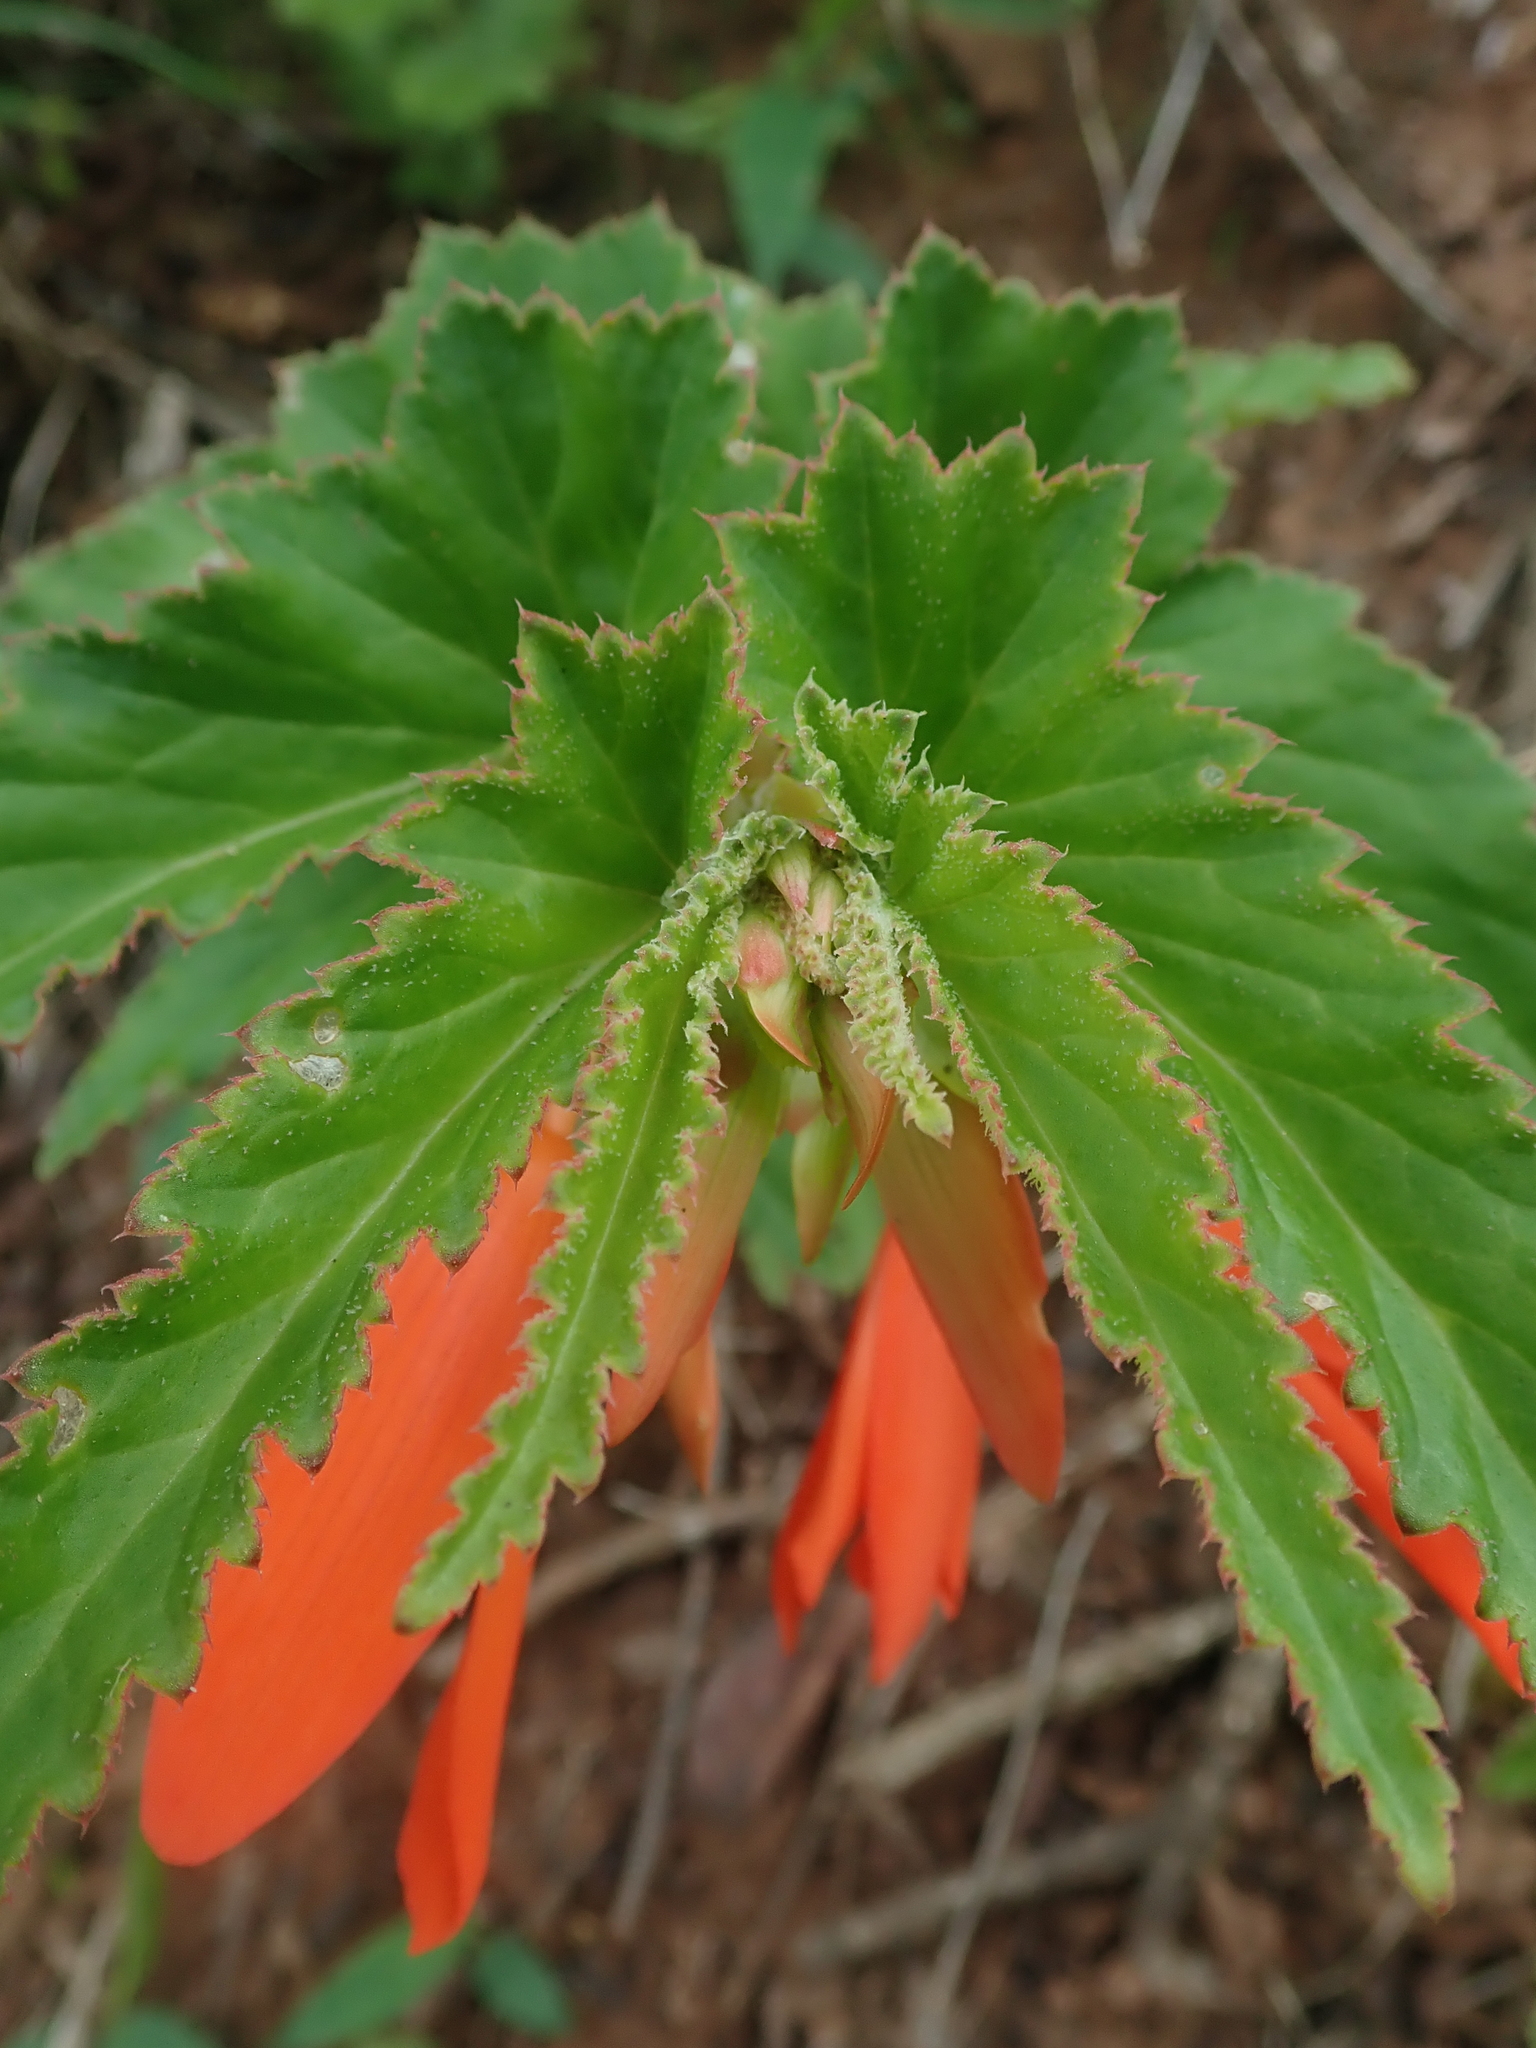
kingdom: Plantae
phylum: Tracheophyta
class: Magnoliopsida
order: Cucurbitales
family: Begoniaceae
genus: Begonia
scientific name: Begonia boliviensis
